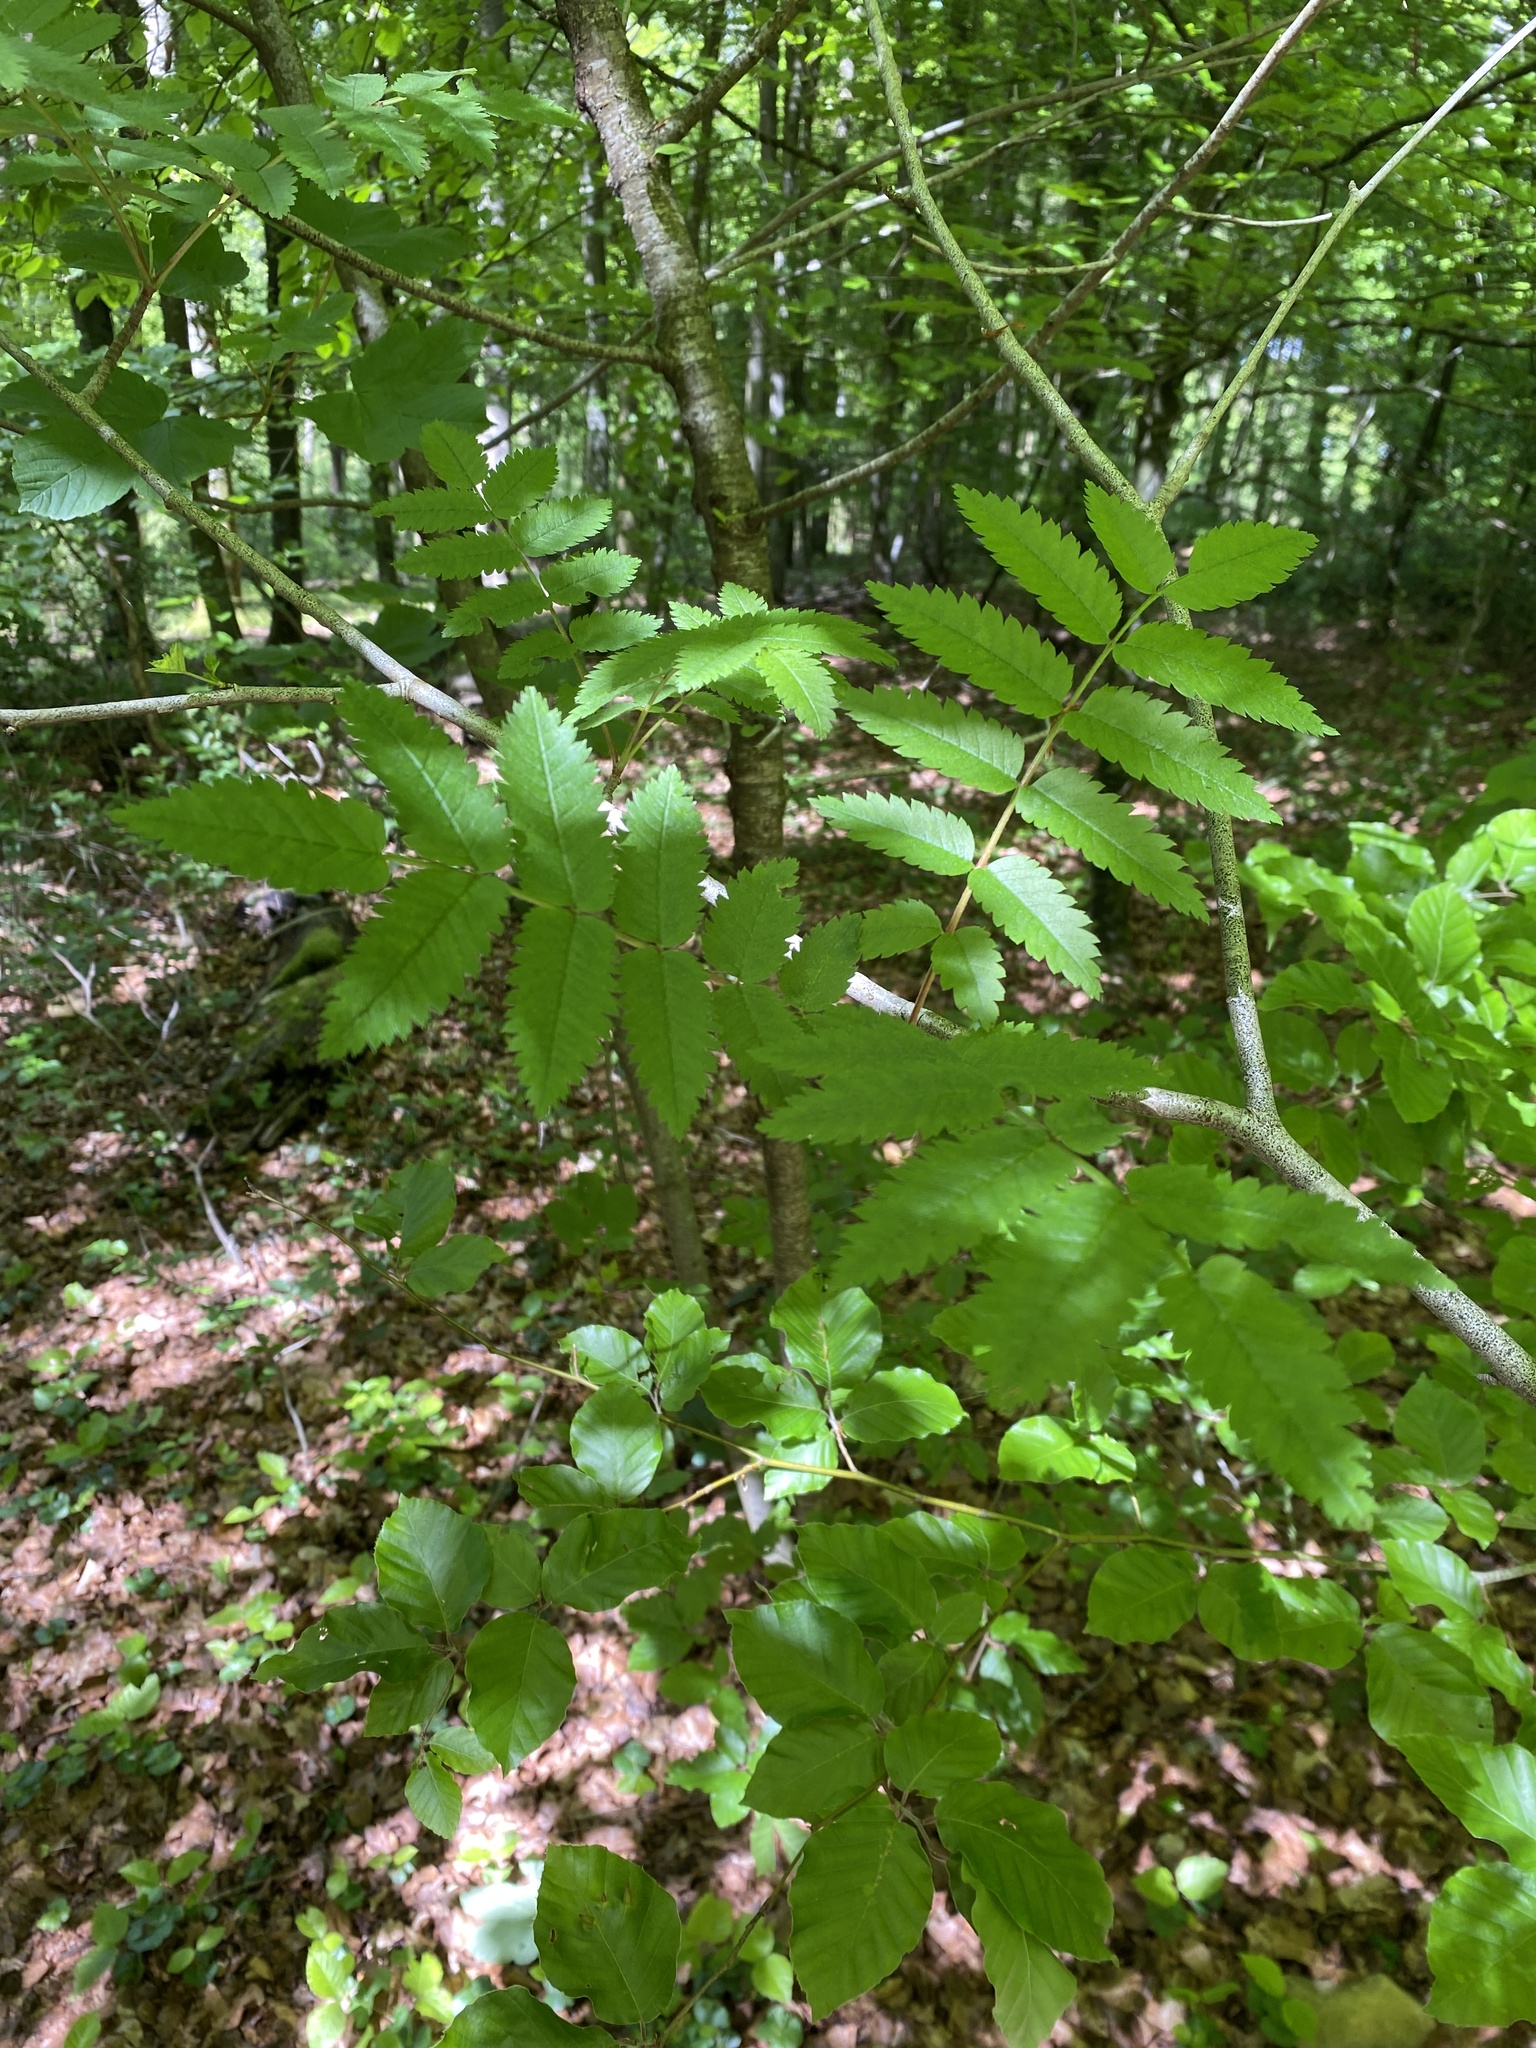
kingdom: Plantae
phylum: Tracheophyta
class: Magnoliopsida
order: Rosales
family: Rosaceae
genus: Sorbus
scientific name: Sorbus aucuparia
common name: Rowan
